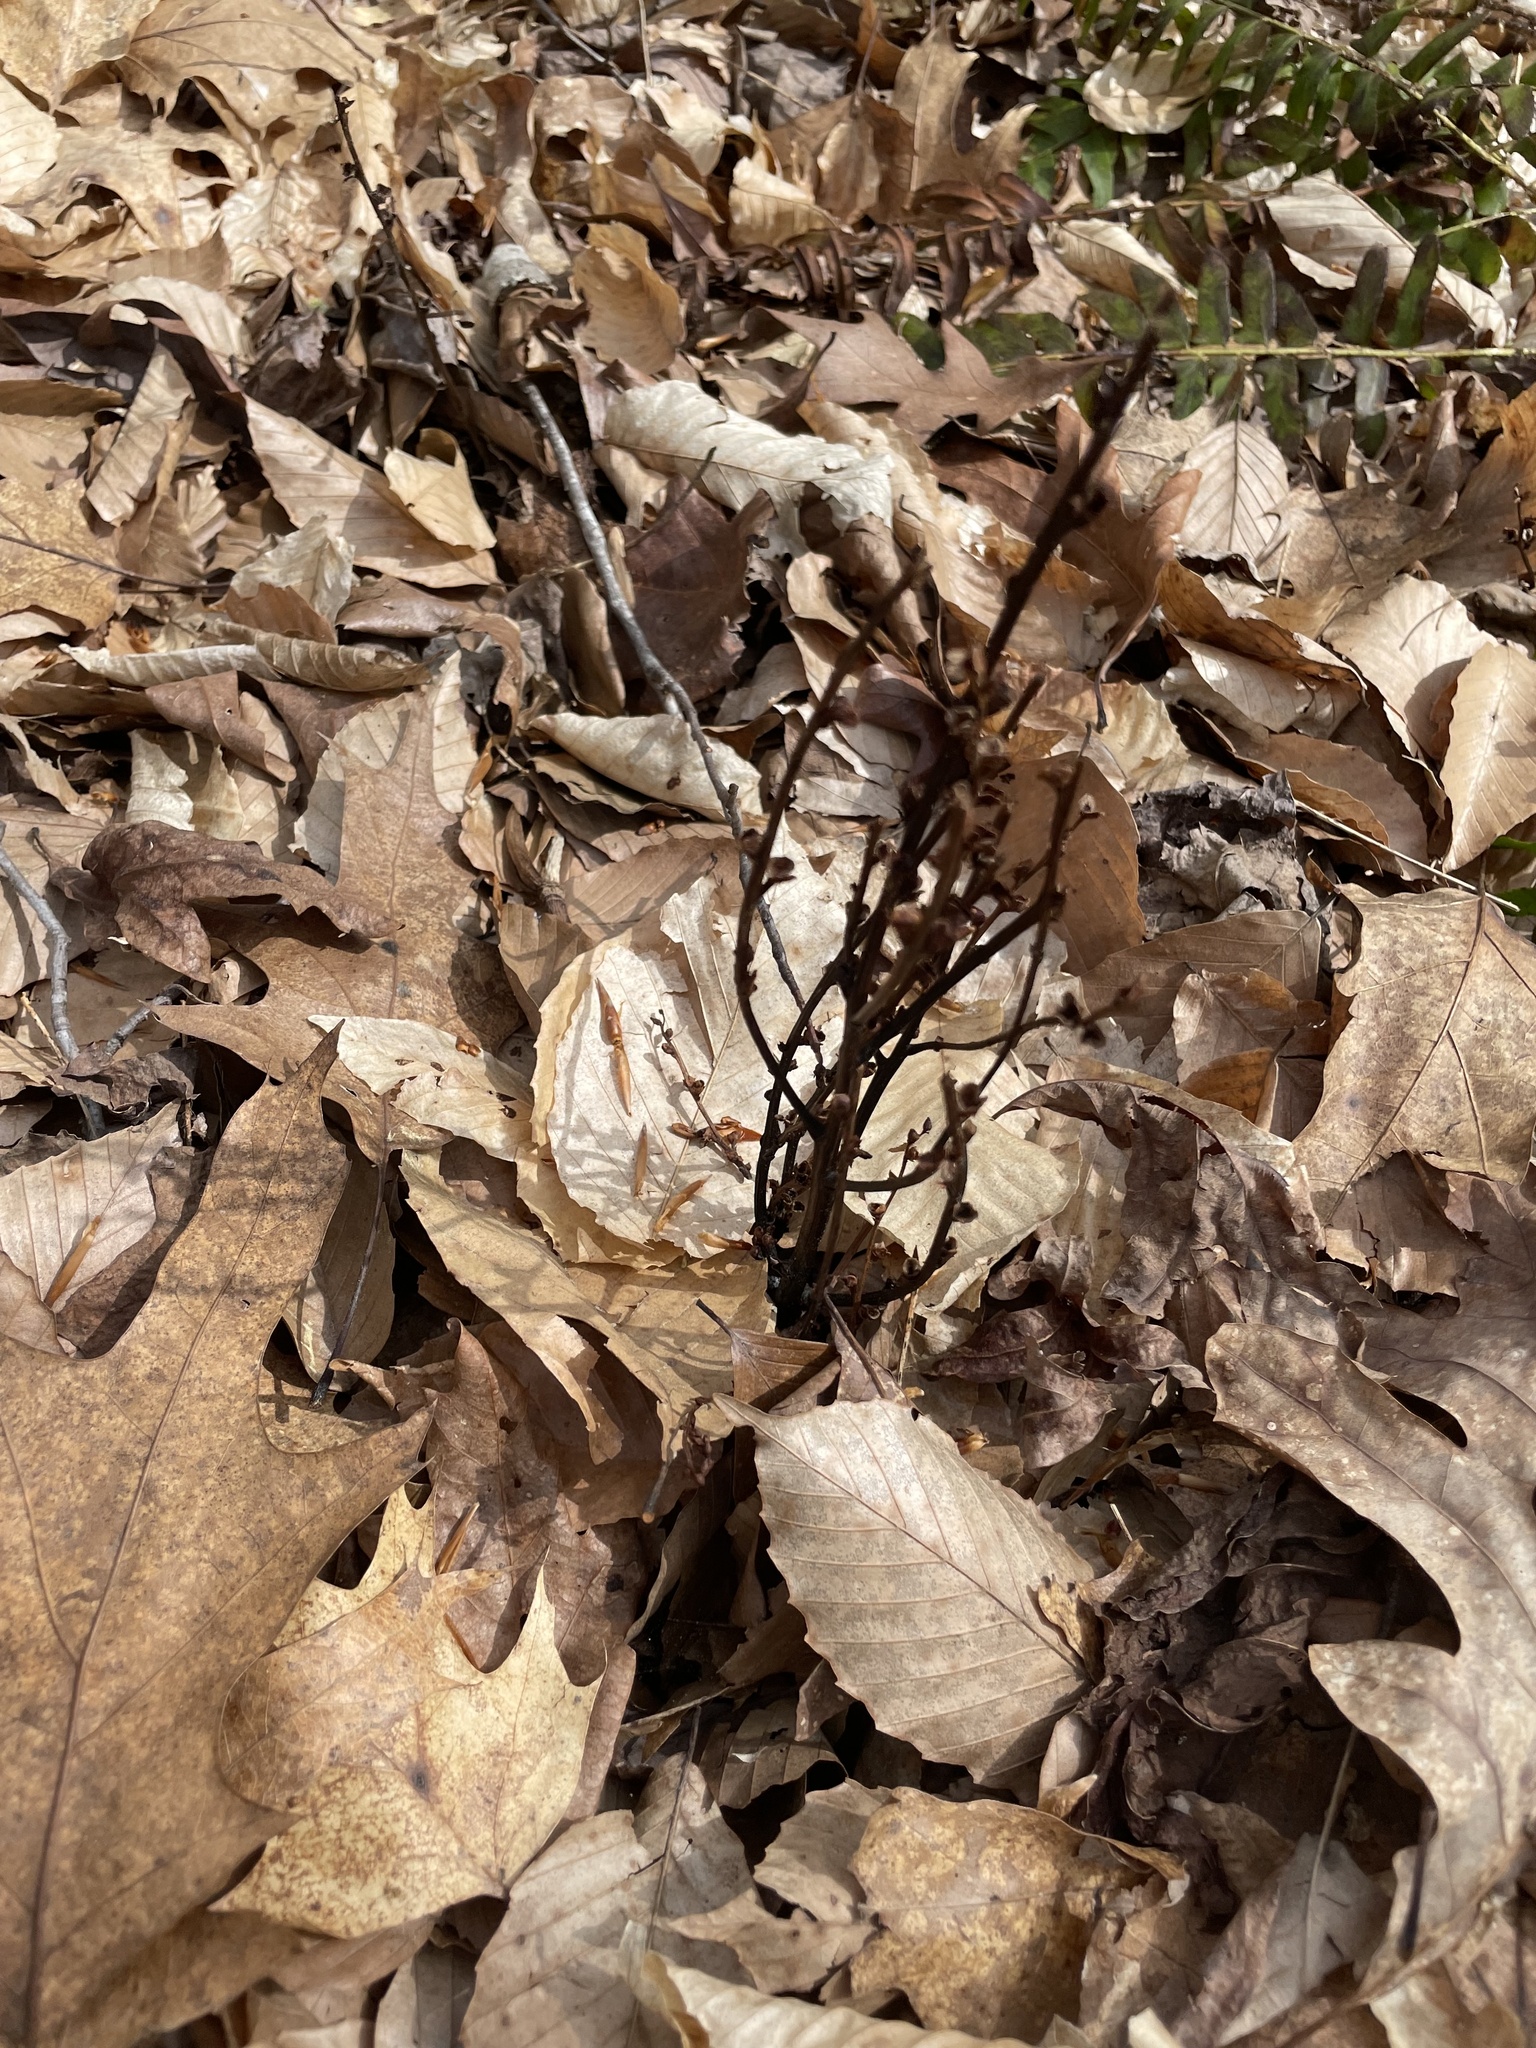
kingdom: Plantae
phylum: Tracheophyta
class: Magnoliopsida
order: Lamiales
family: Orobanchaceae
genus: Epifagus
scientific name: Epifagus virginiana
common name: Beechdrops
